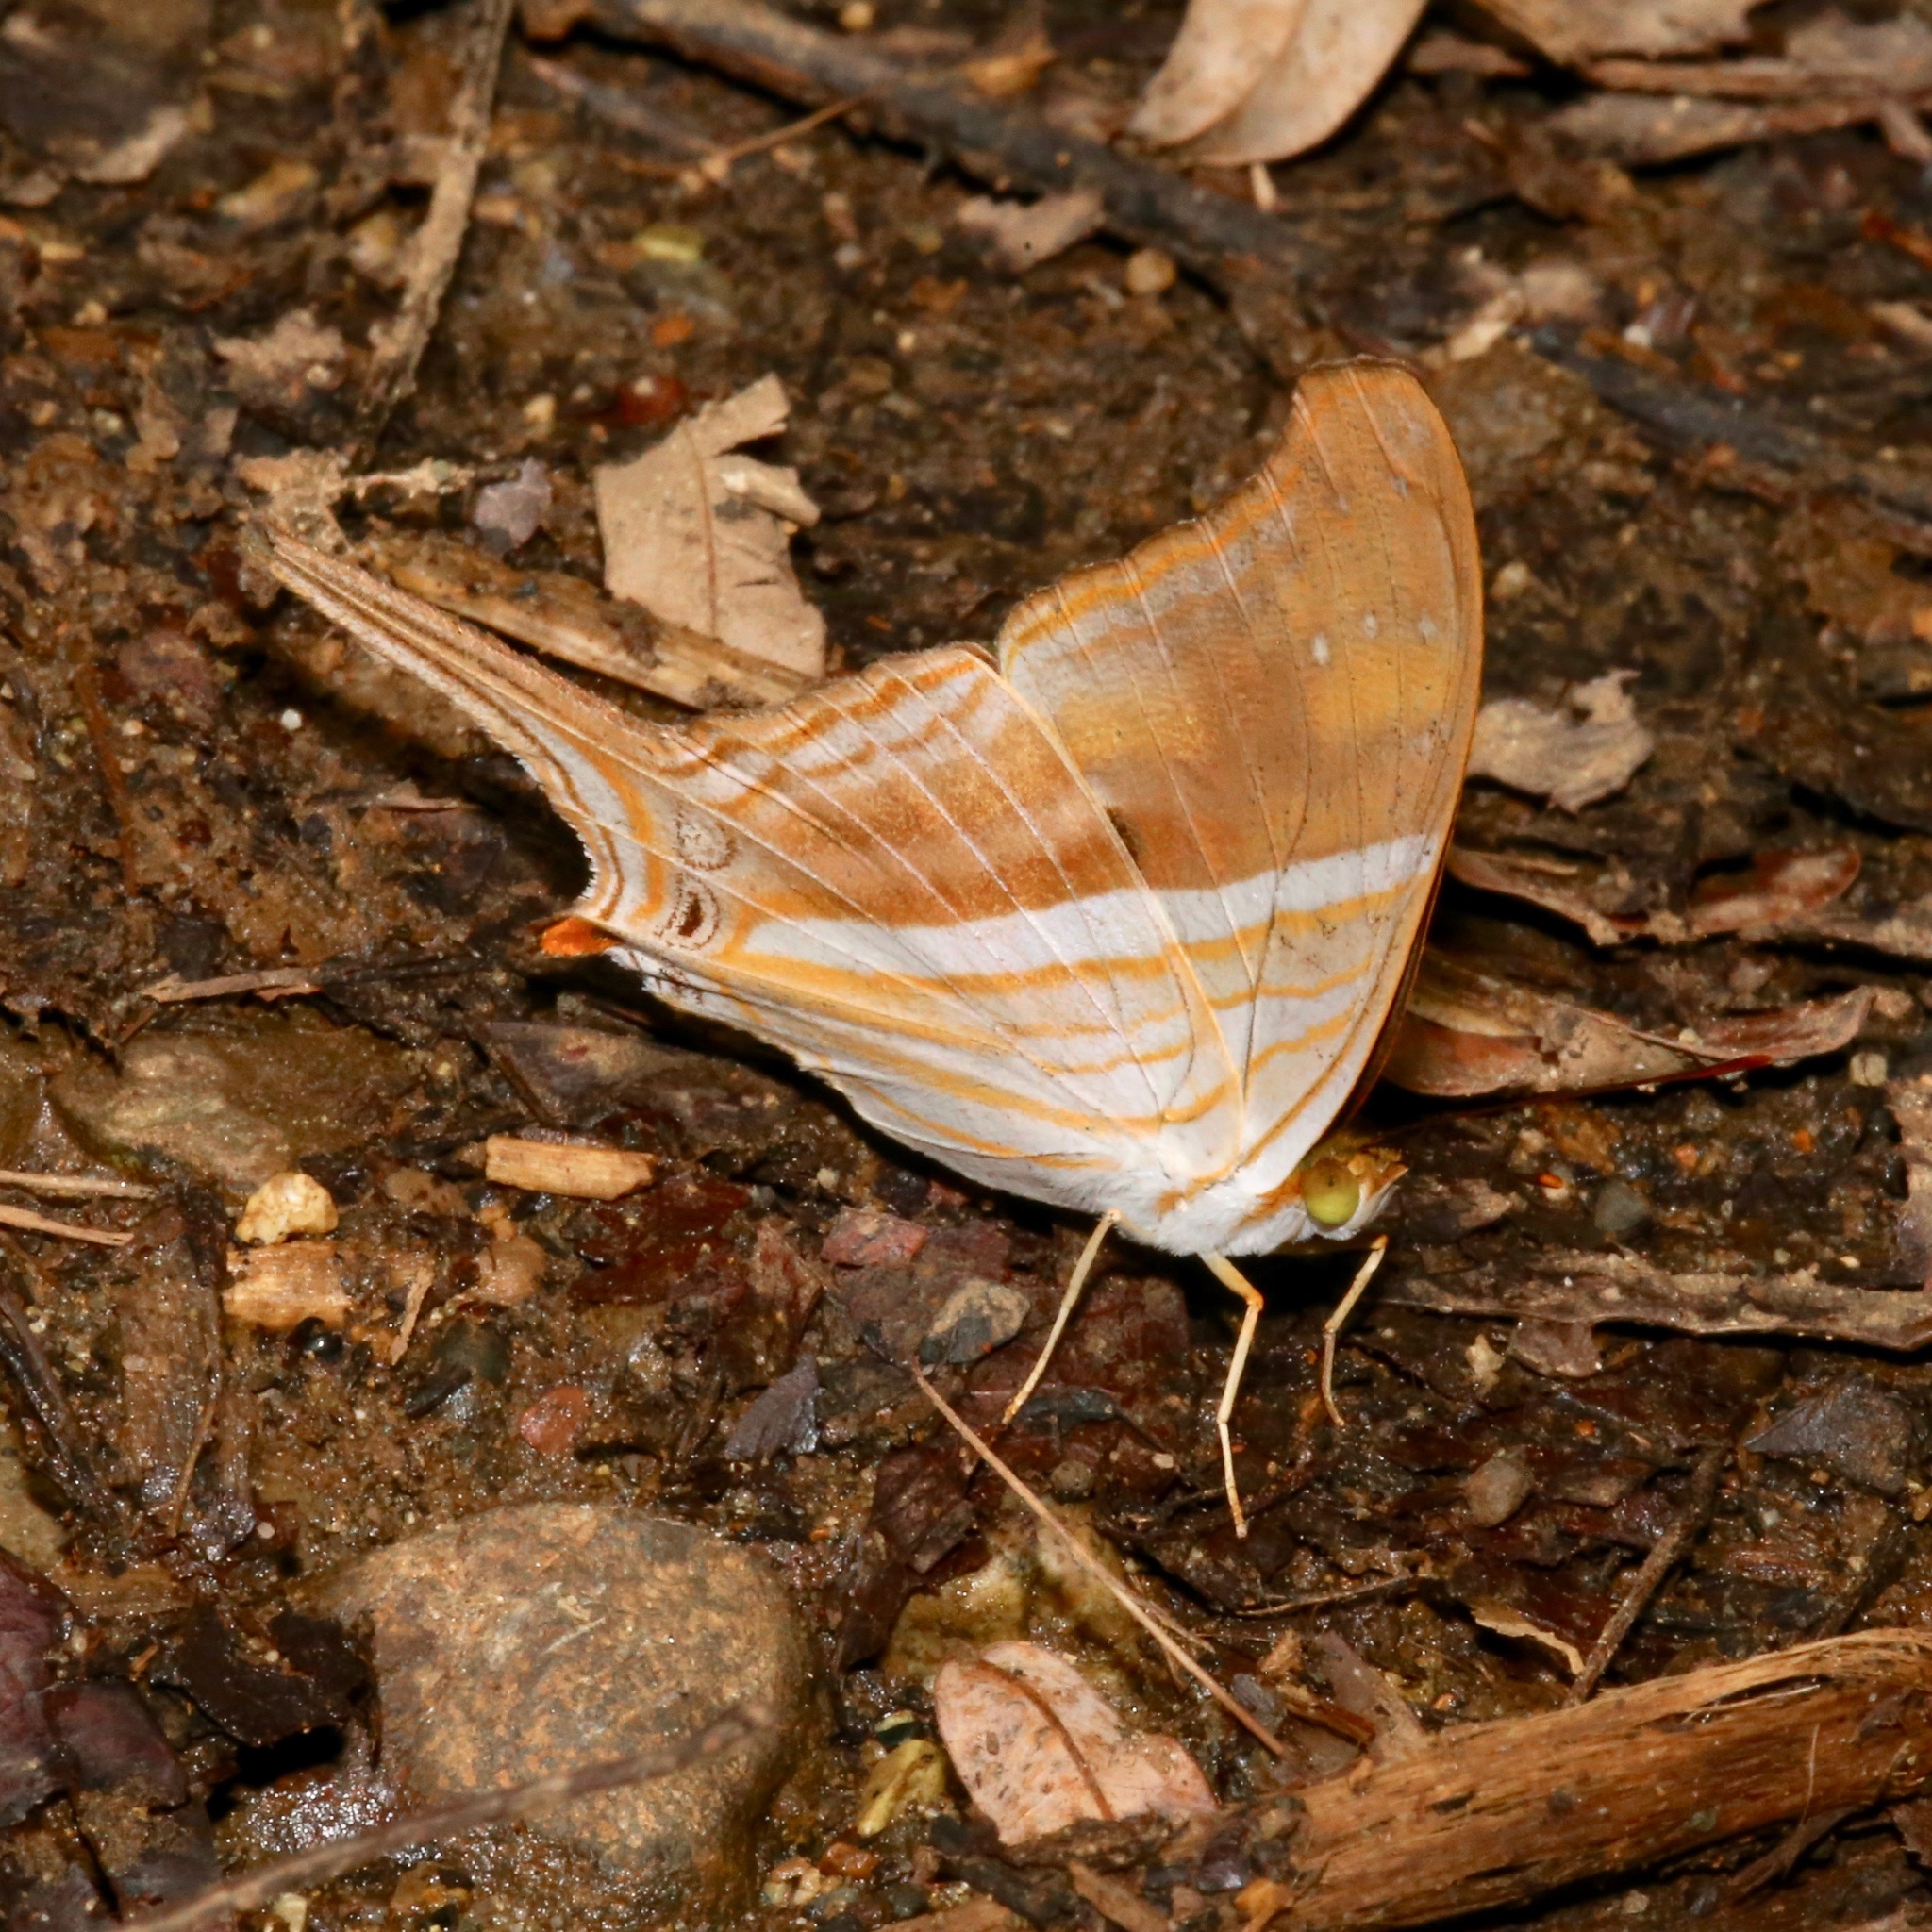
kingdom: Animalia
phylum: Arthropoda
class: Insecta
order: Lepidoptera
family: Nymphalidae
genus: Marpesia
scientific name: Marpesia chiron
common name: Many-banded daggerwing
